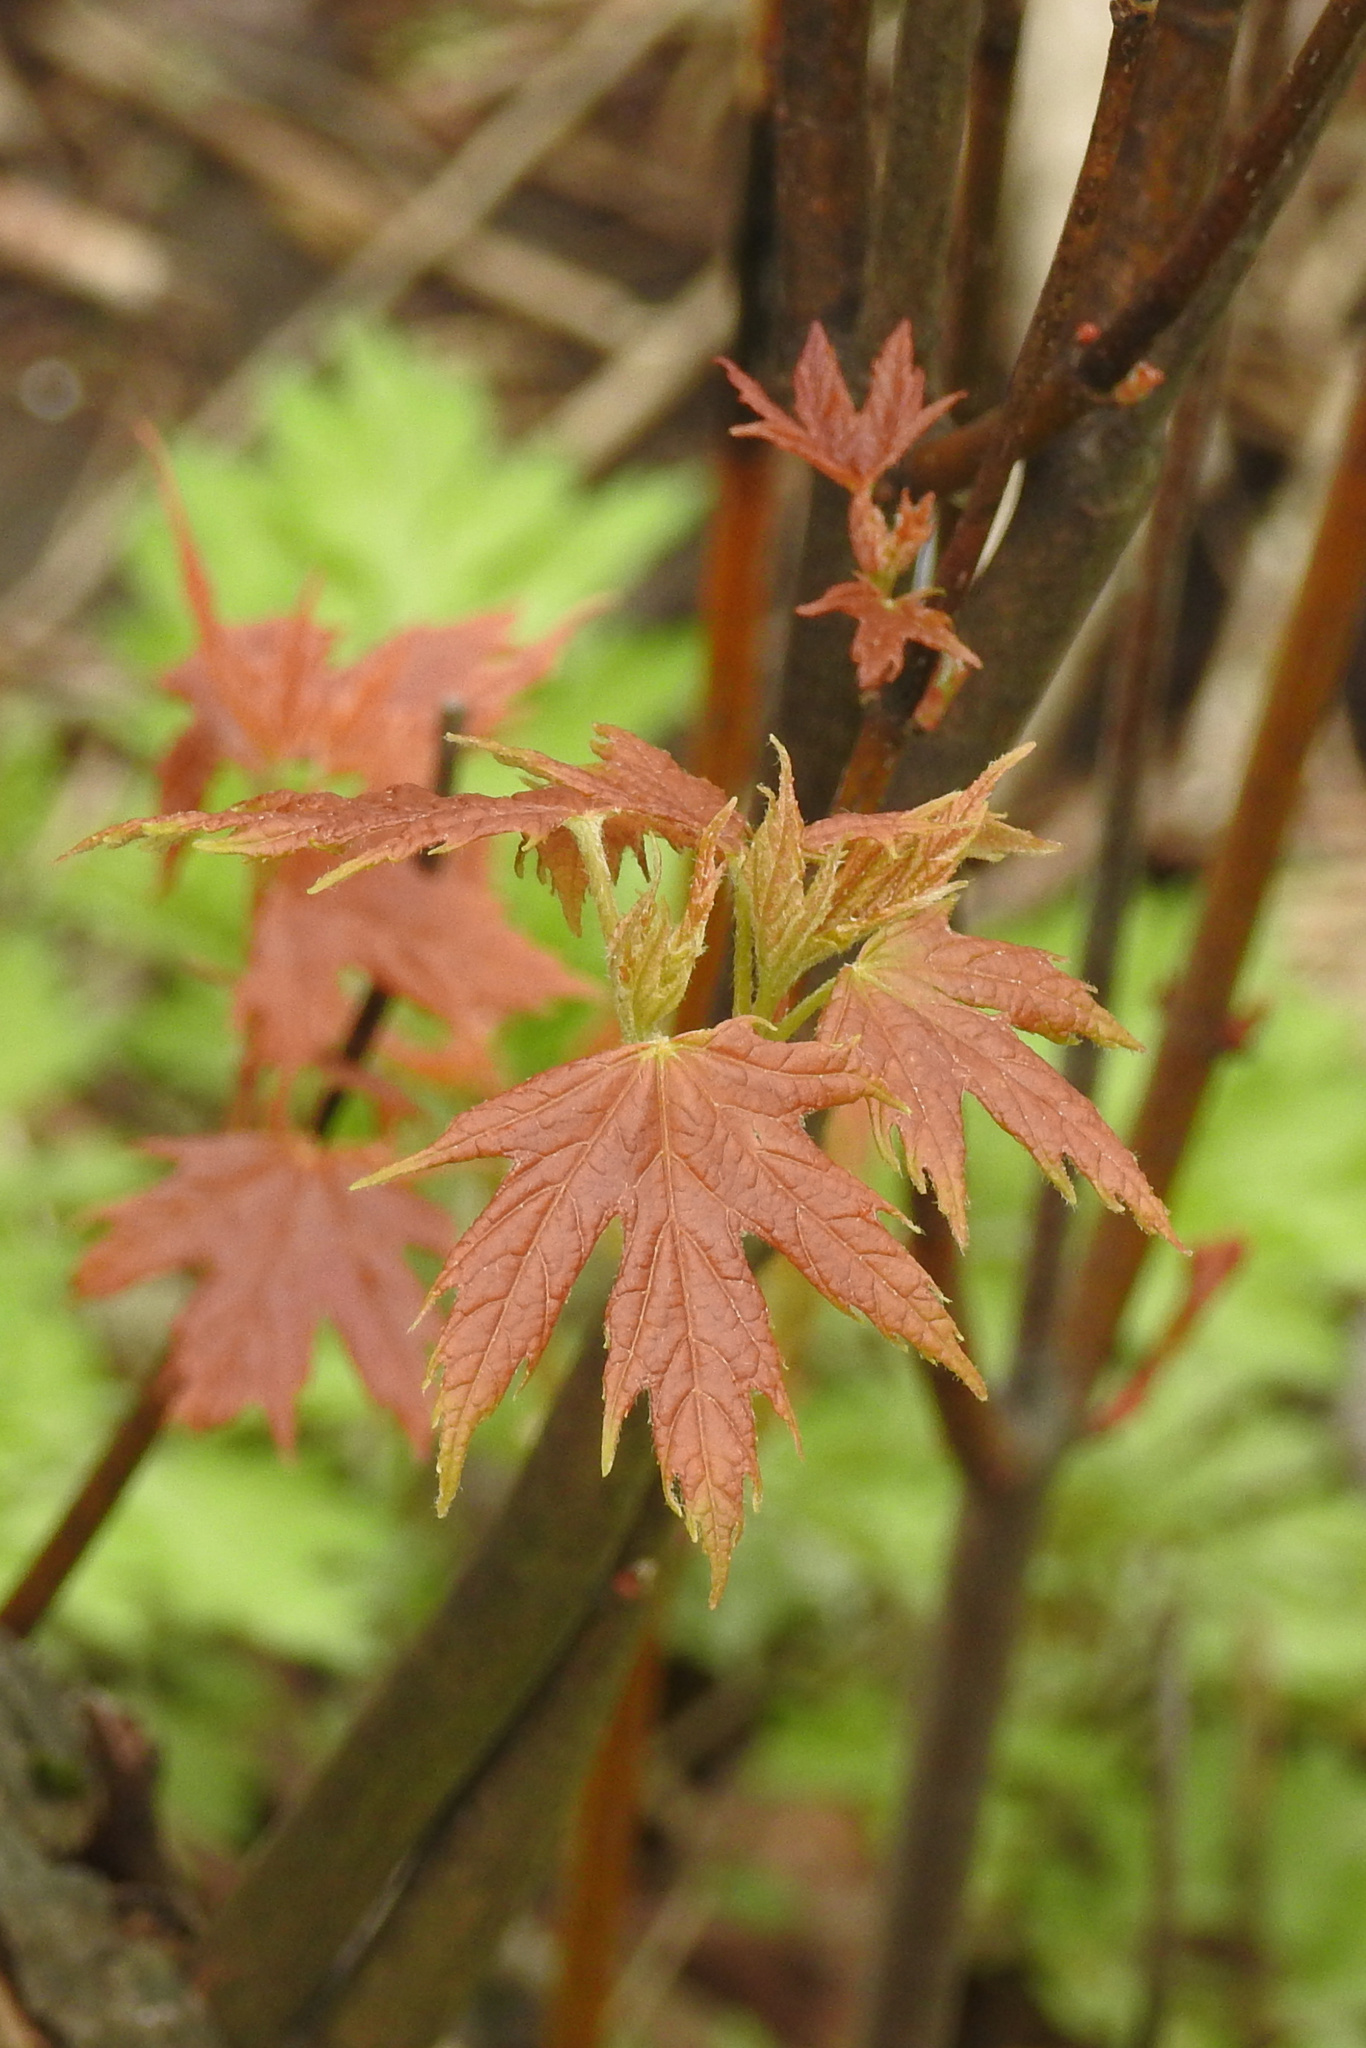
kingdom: Plantae
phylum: Tracheophyta
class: Magnoliopsida
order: Sapindales
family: Sapindaceae
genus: Acer
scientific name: Acer saccharinum
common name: Silver maple
